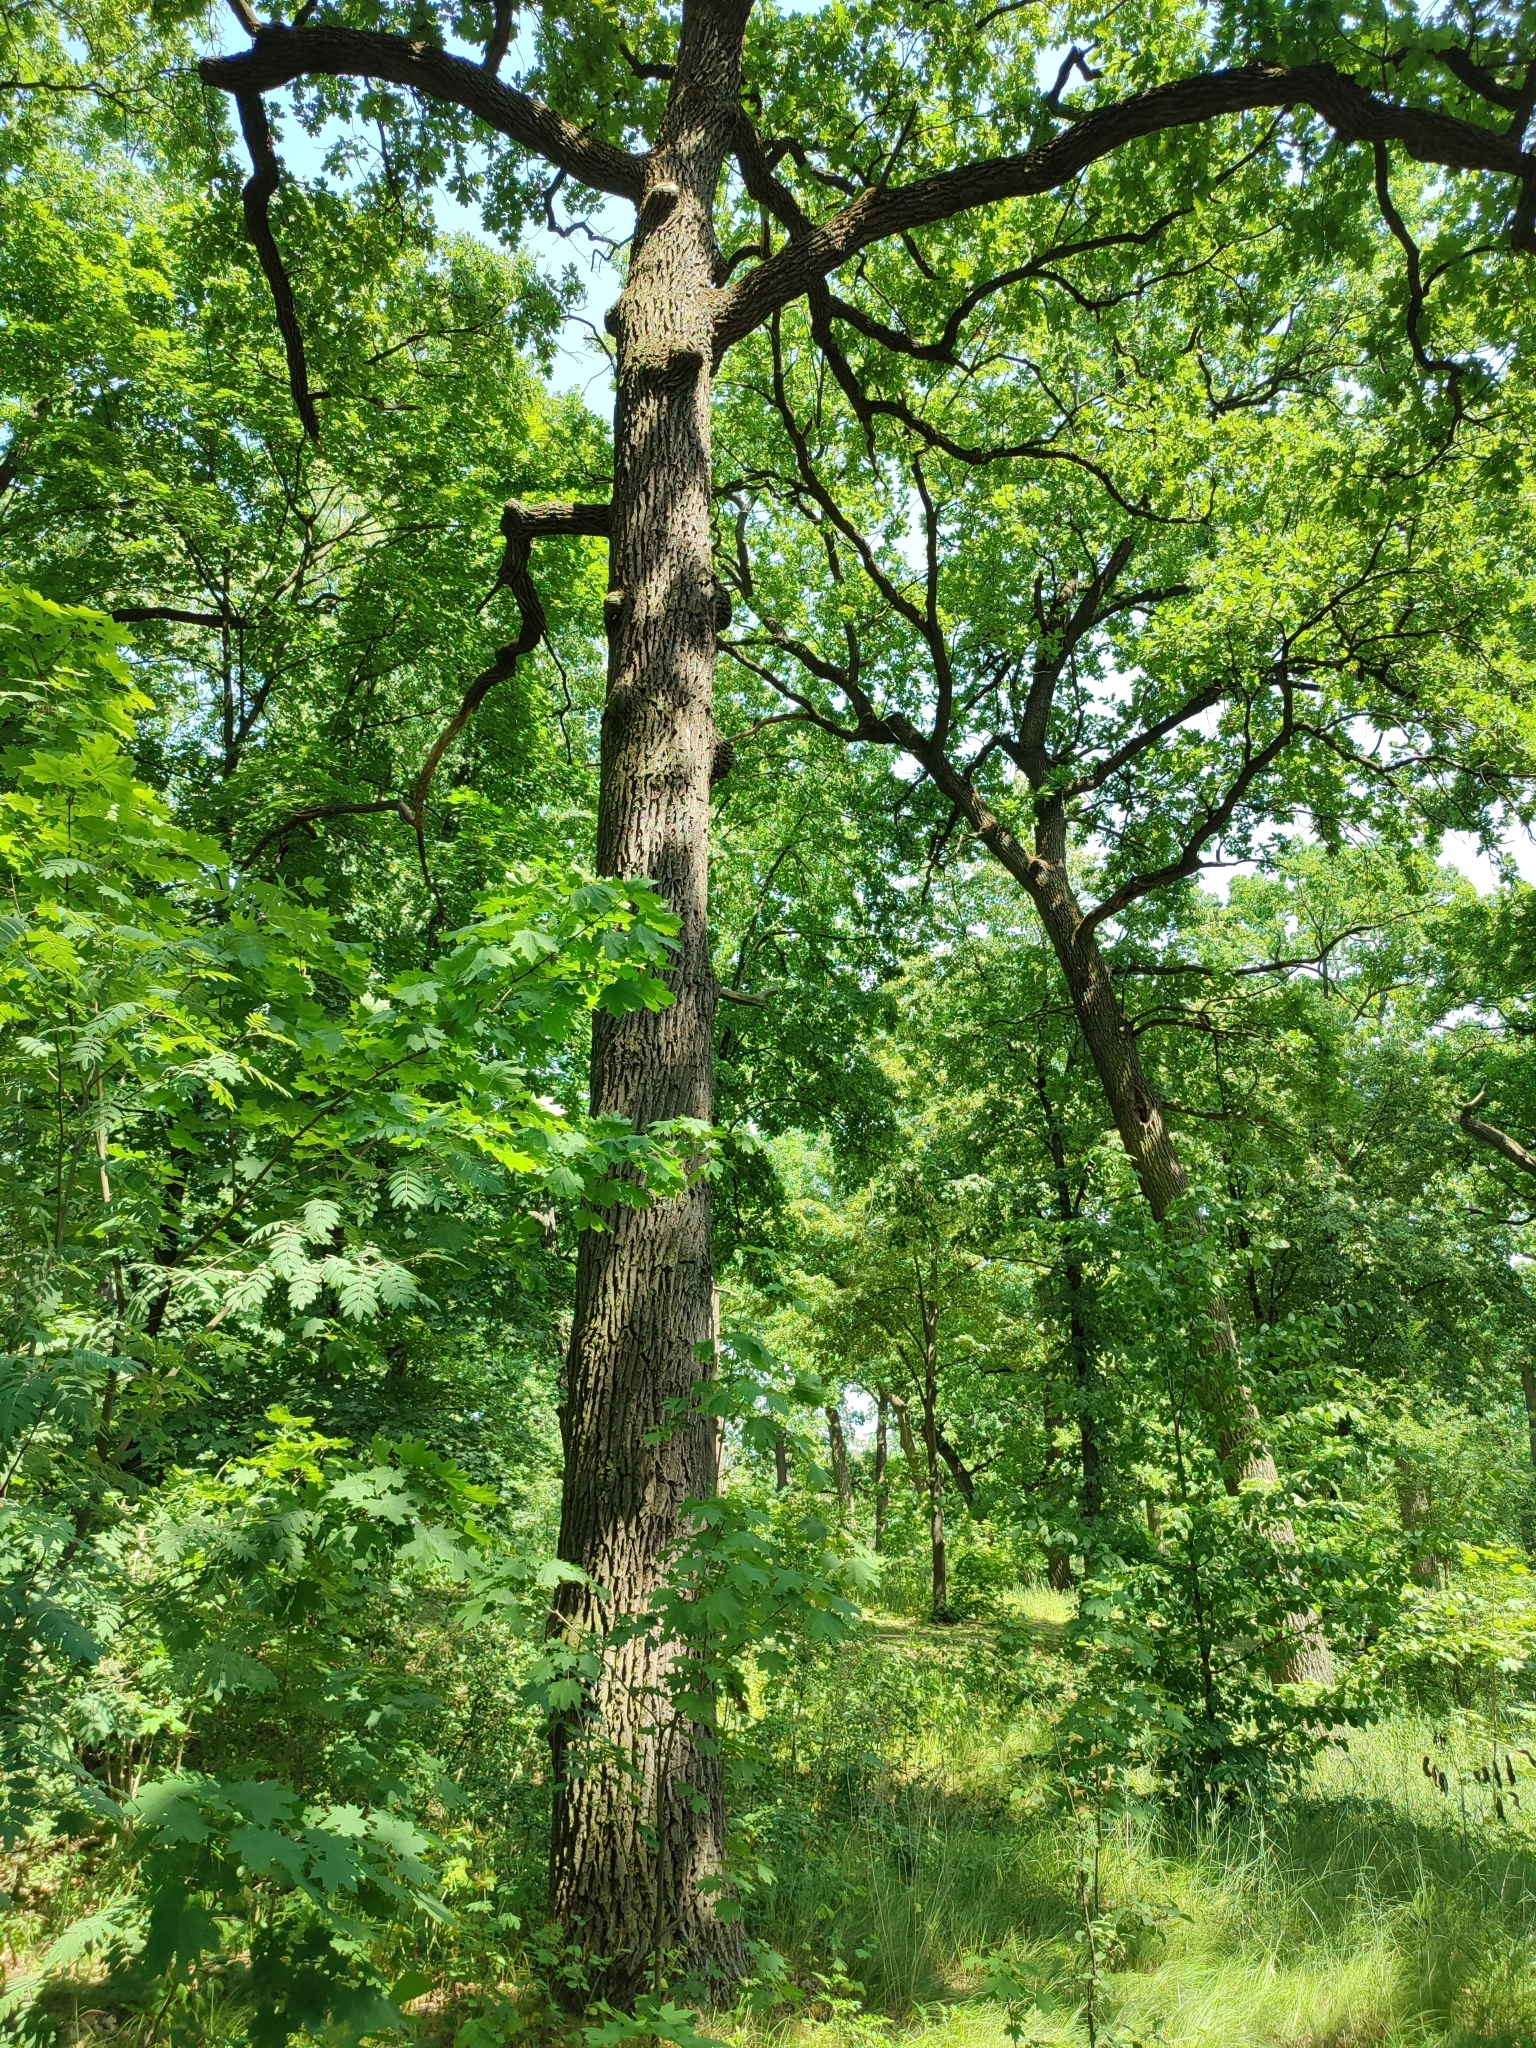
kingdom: Plantae
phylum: Tracheophyta
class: Magnoliopsida
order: Fagales
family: Fagaceae
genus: Quercus
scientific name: Quercus robur
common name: Pedunculate oak
